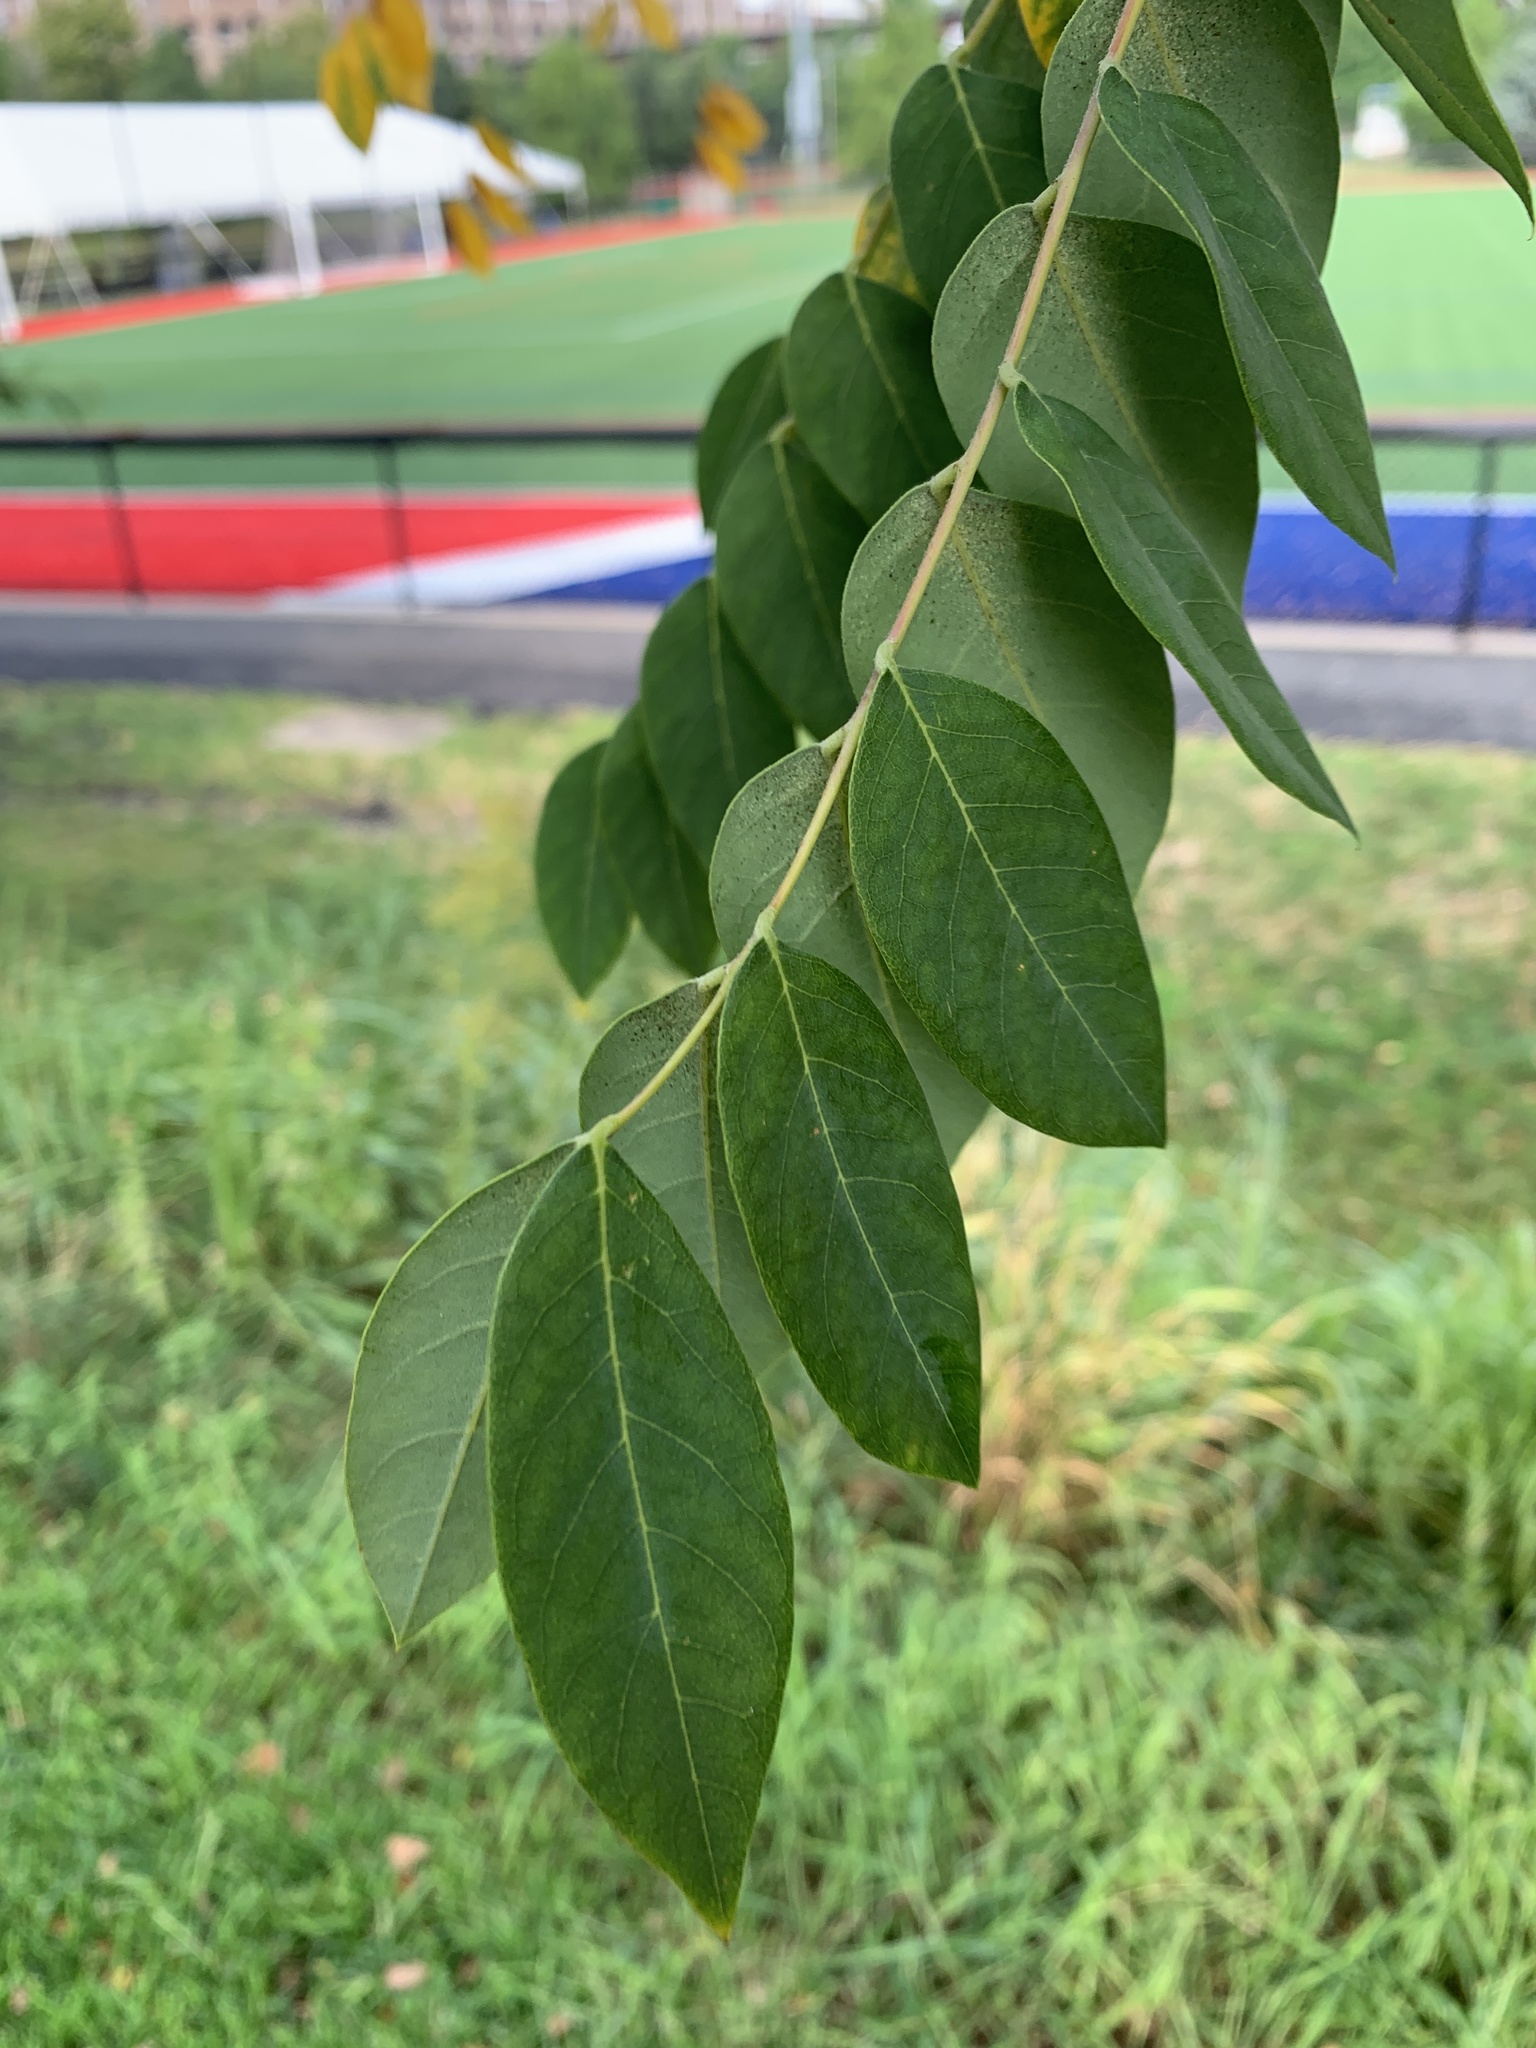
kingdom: Plantae
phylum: Tracheophyta
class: Magnoliopsida
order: Fabales
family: Fabaceae
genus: Gymnocladus
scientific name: Gymnocladus dioicus
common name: Kentucky coffee-tree
